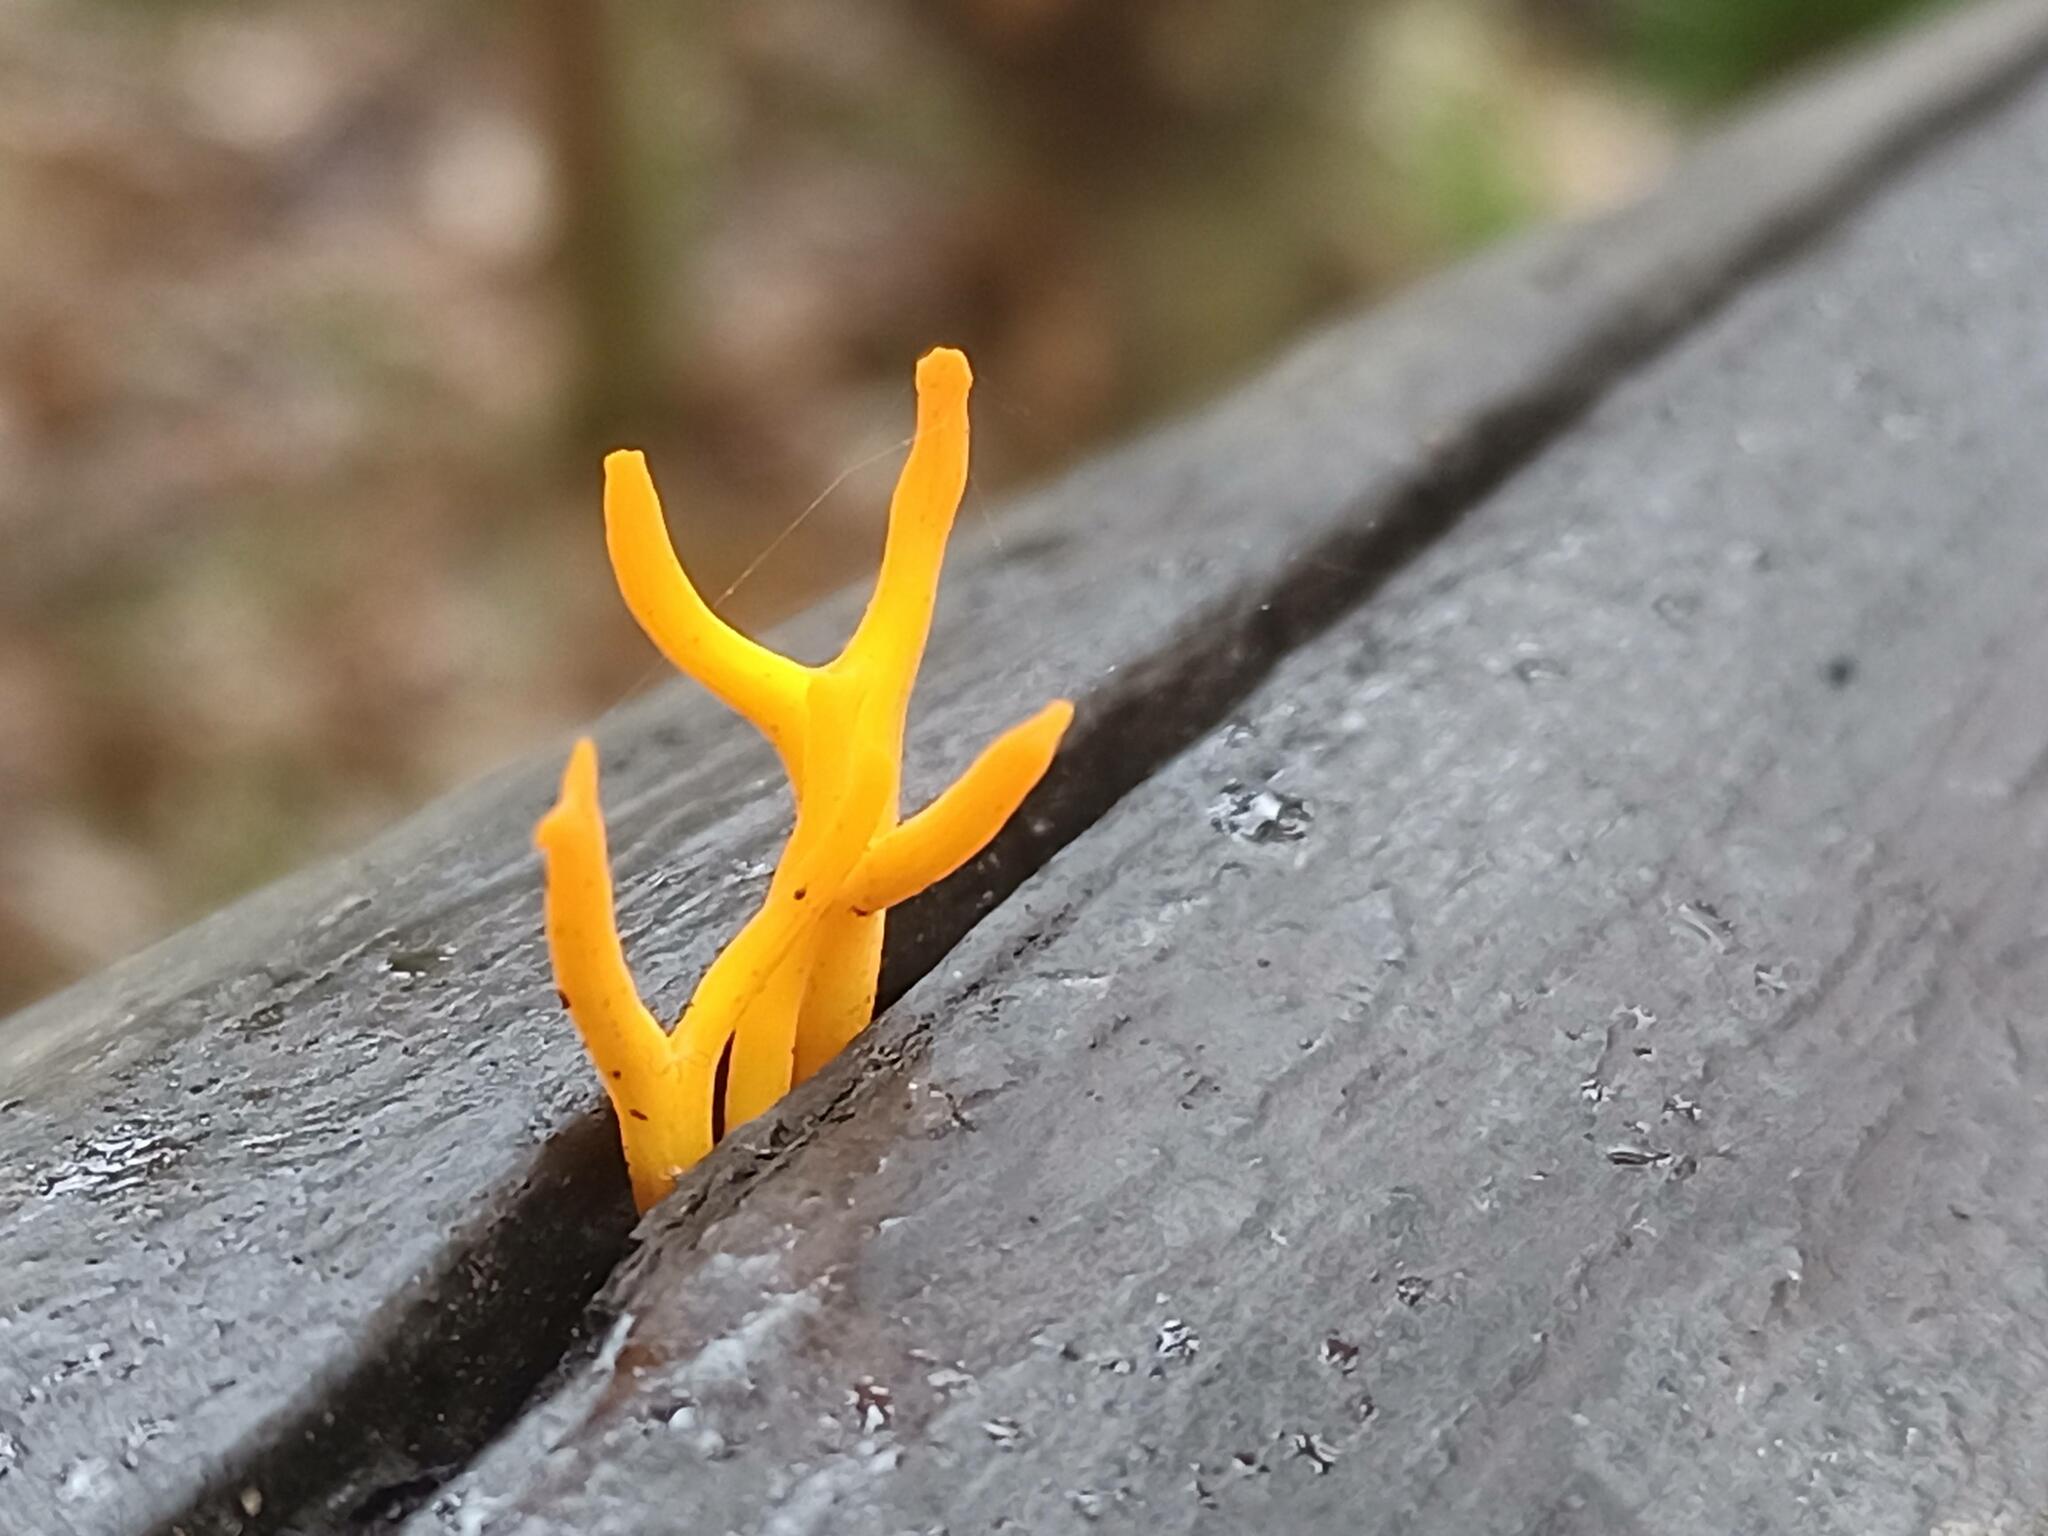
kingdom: Fungi
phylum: Basidiomycota
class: Dacrymycetes
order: Dacrymycetales
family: Dacrymycetaceae
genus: Calocera
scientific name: Calocera viscosa
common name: Yellow stagshorn
